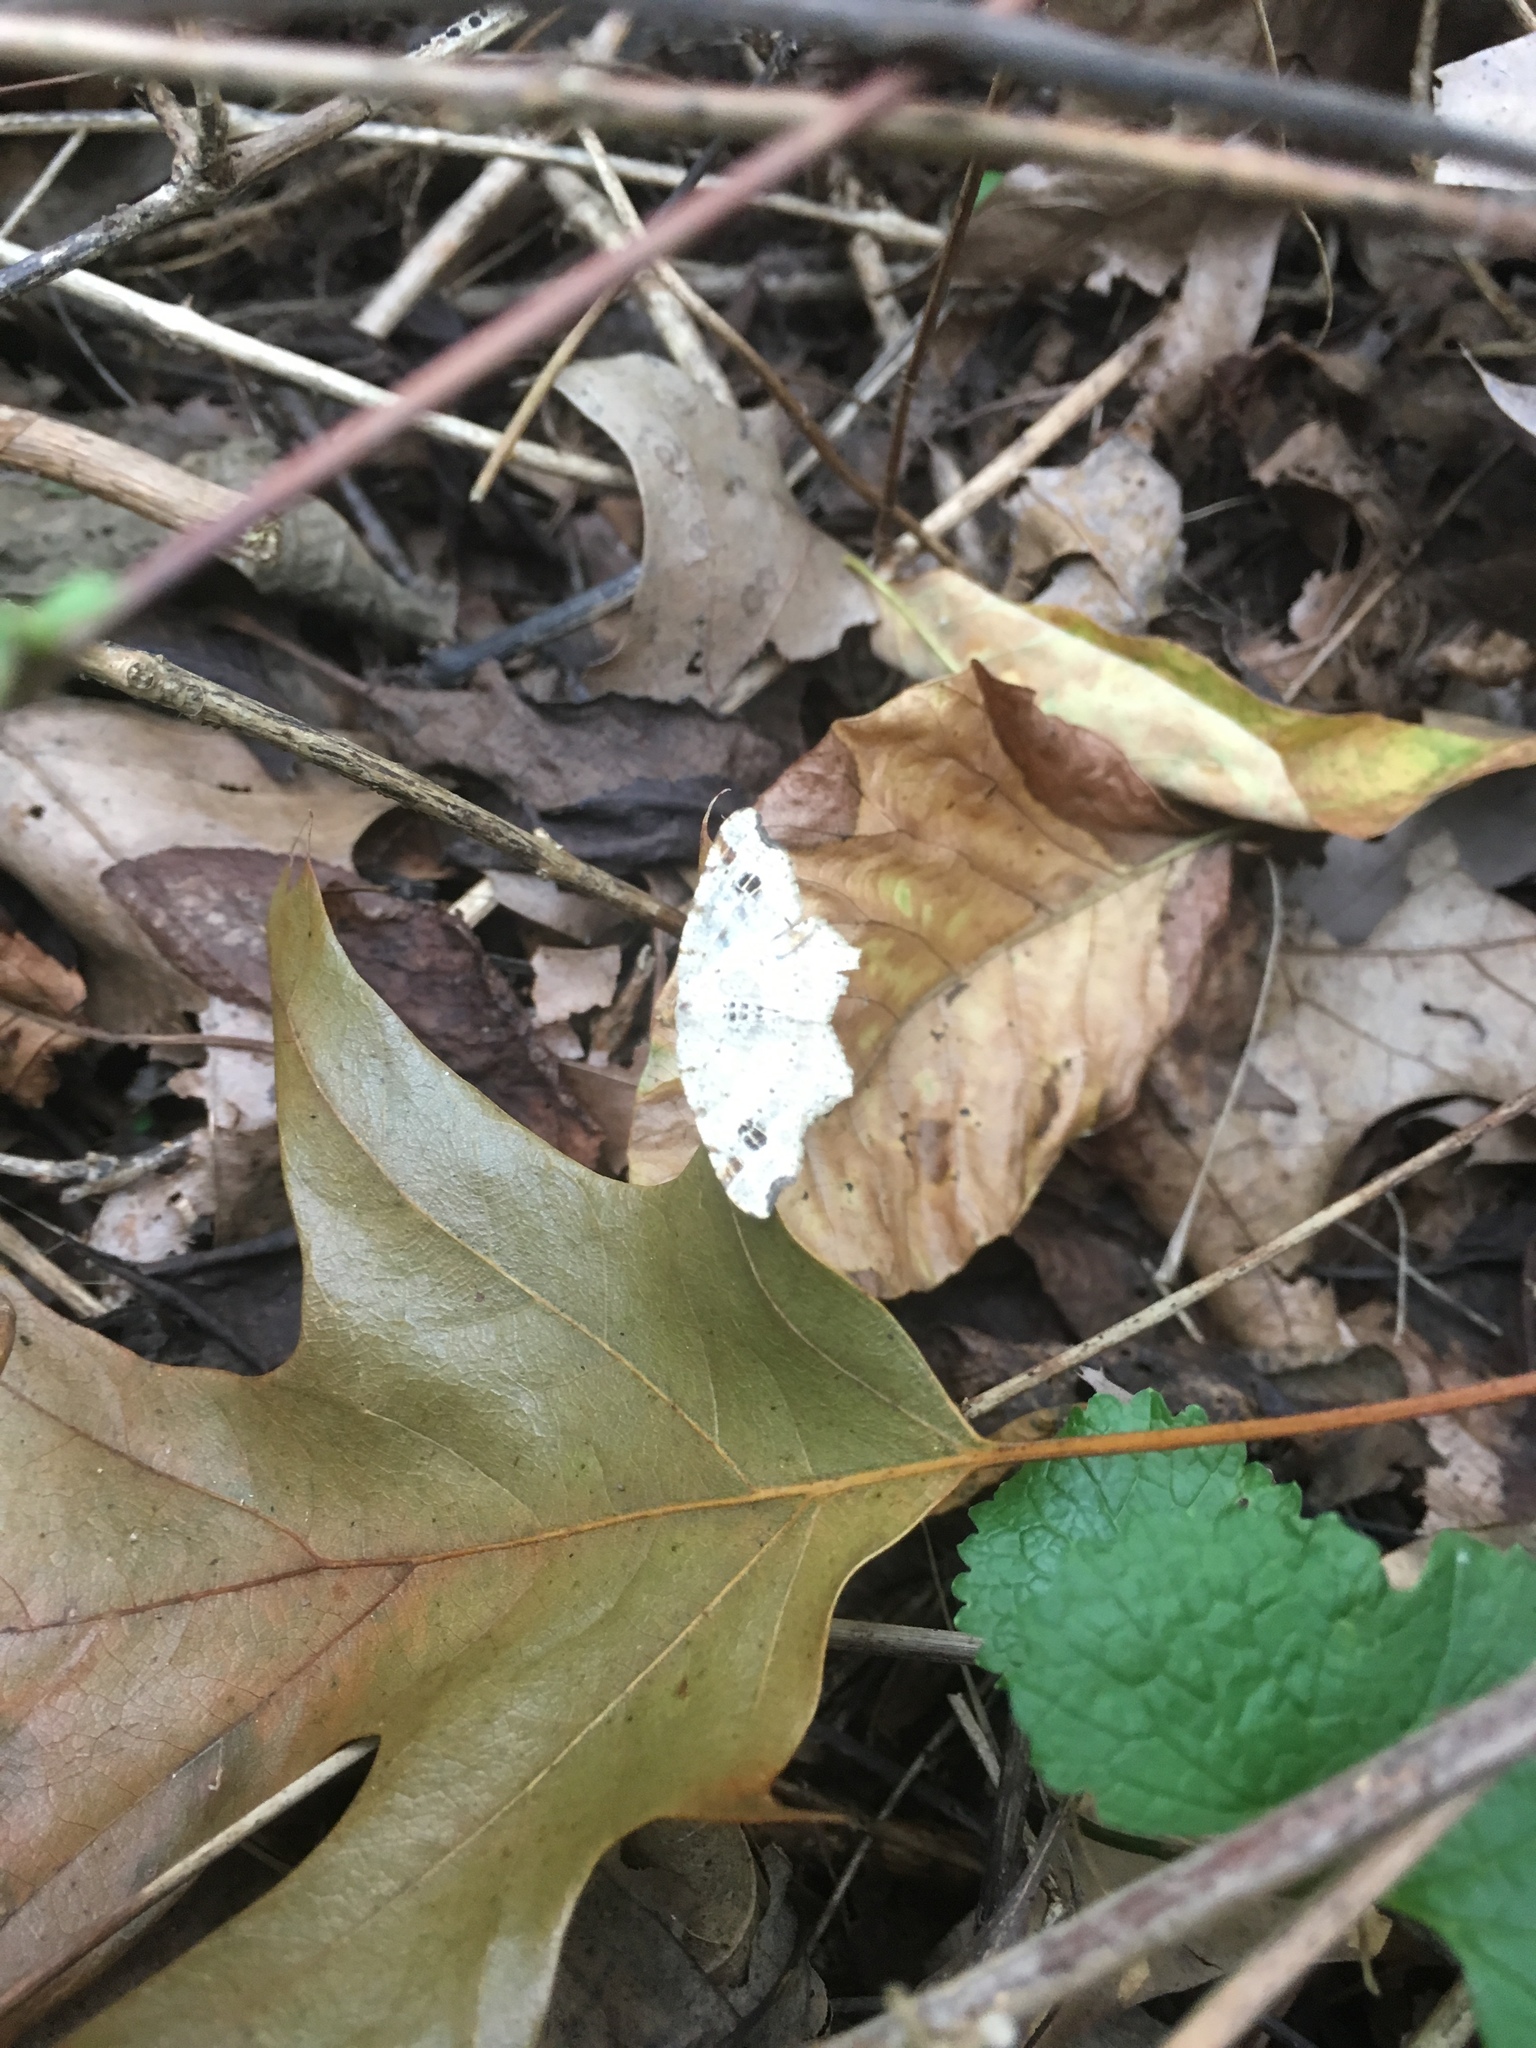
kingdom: Animalia
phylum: Arthropoda
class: Insecta
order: Lepidoptera
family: Geometridae
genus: Macaria
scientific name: Macaria aemulataria
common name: Common angle
